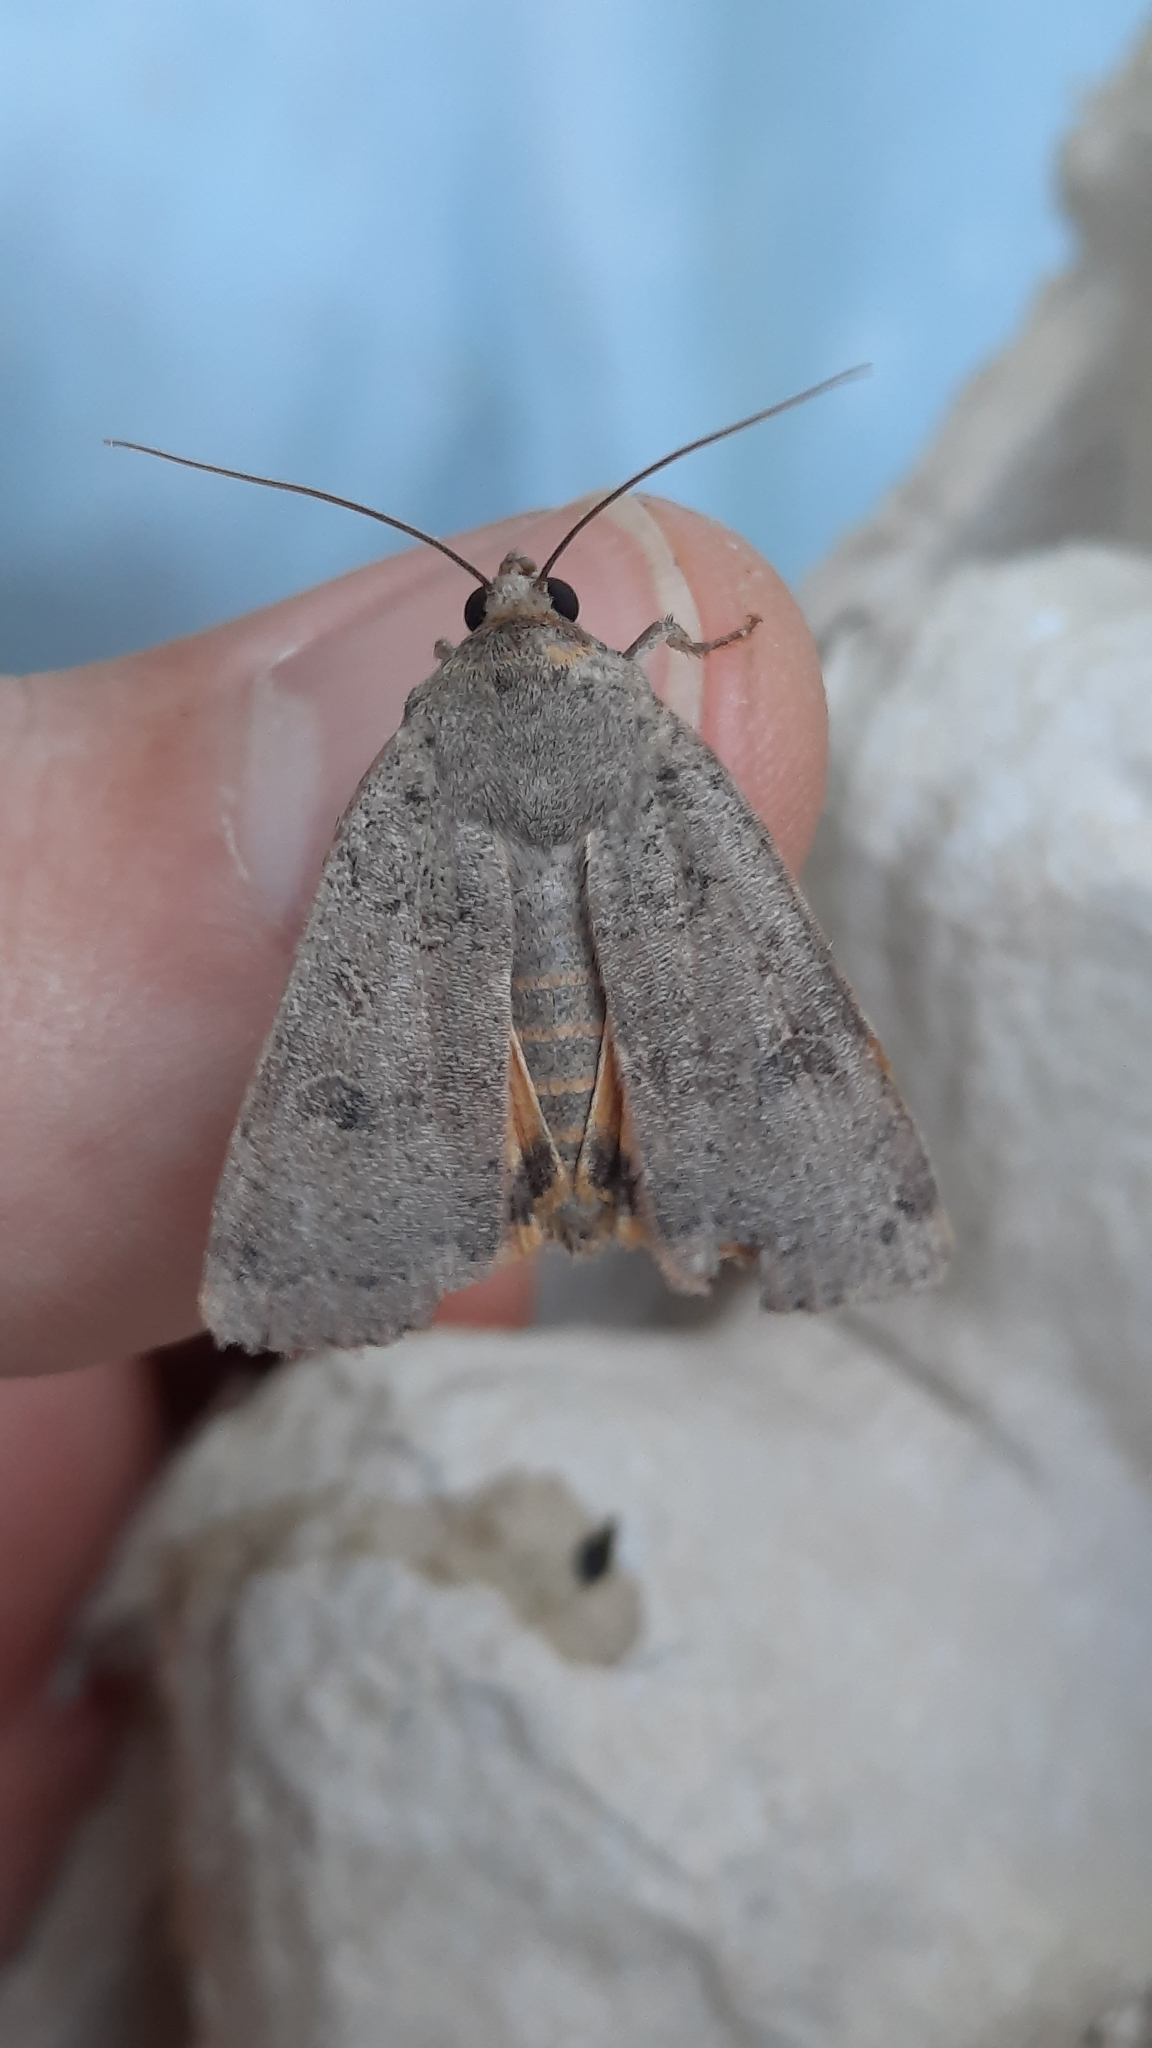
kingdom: Animalia
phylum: Arthropoda
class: Insecta
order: Lepidoptera
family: Noctuidae
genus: Noctua
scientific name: Noctua comes
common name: Lesser yellow underwing
